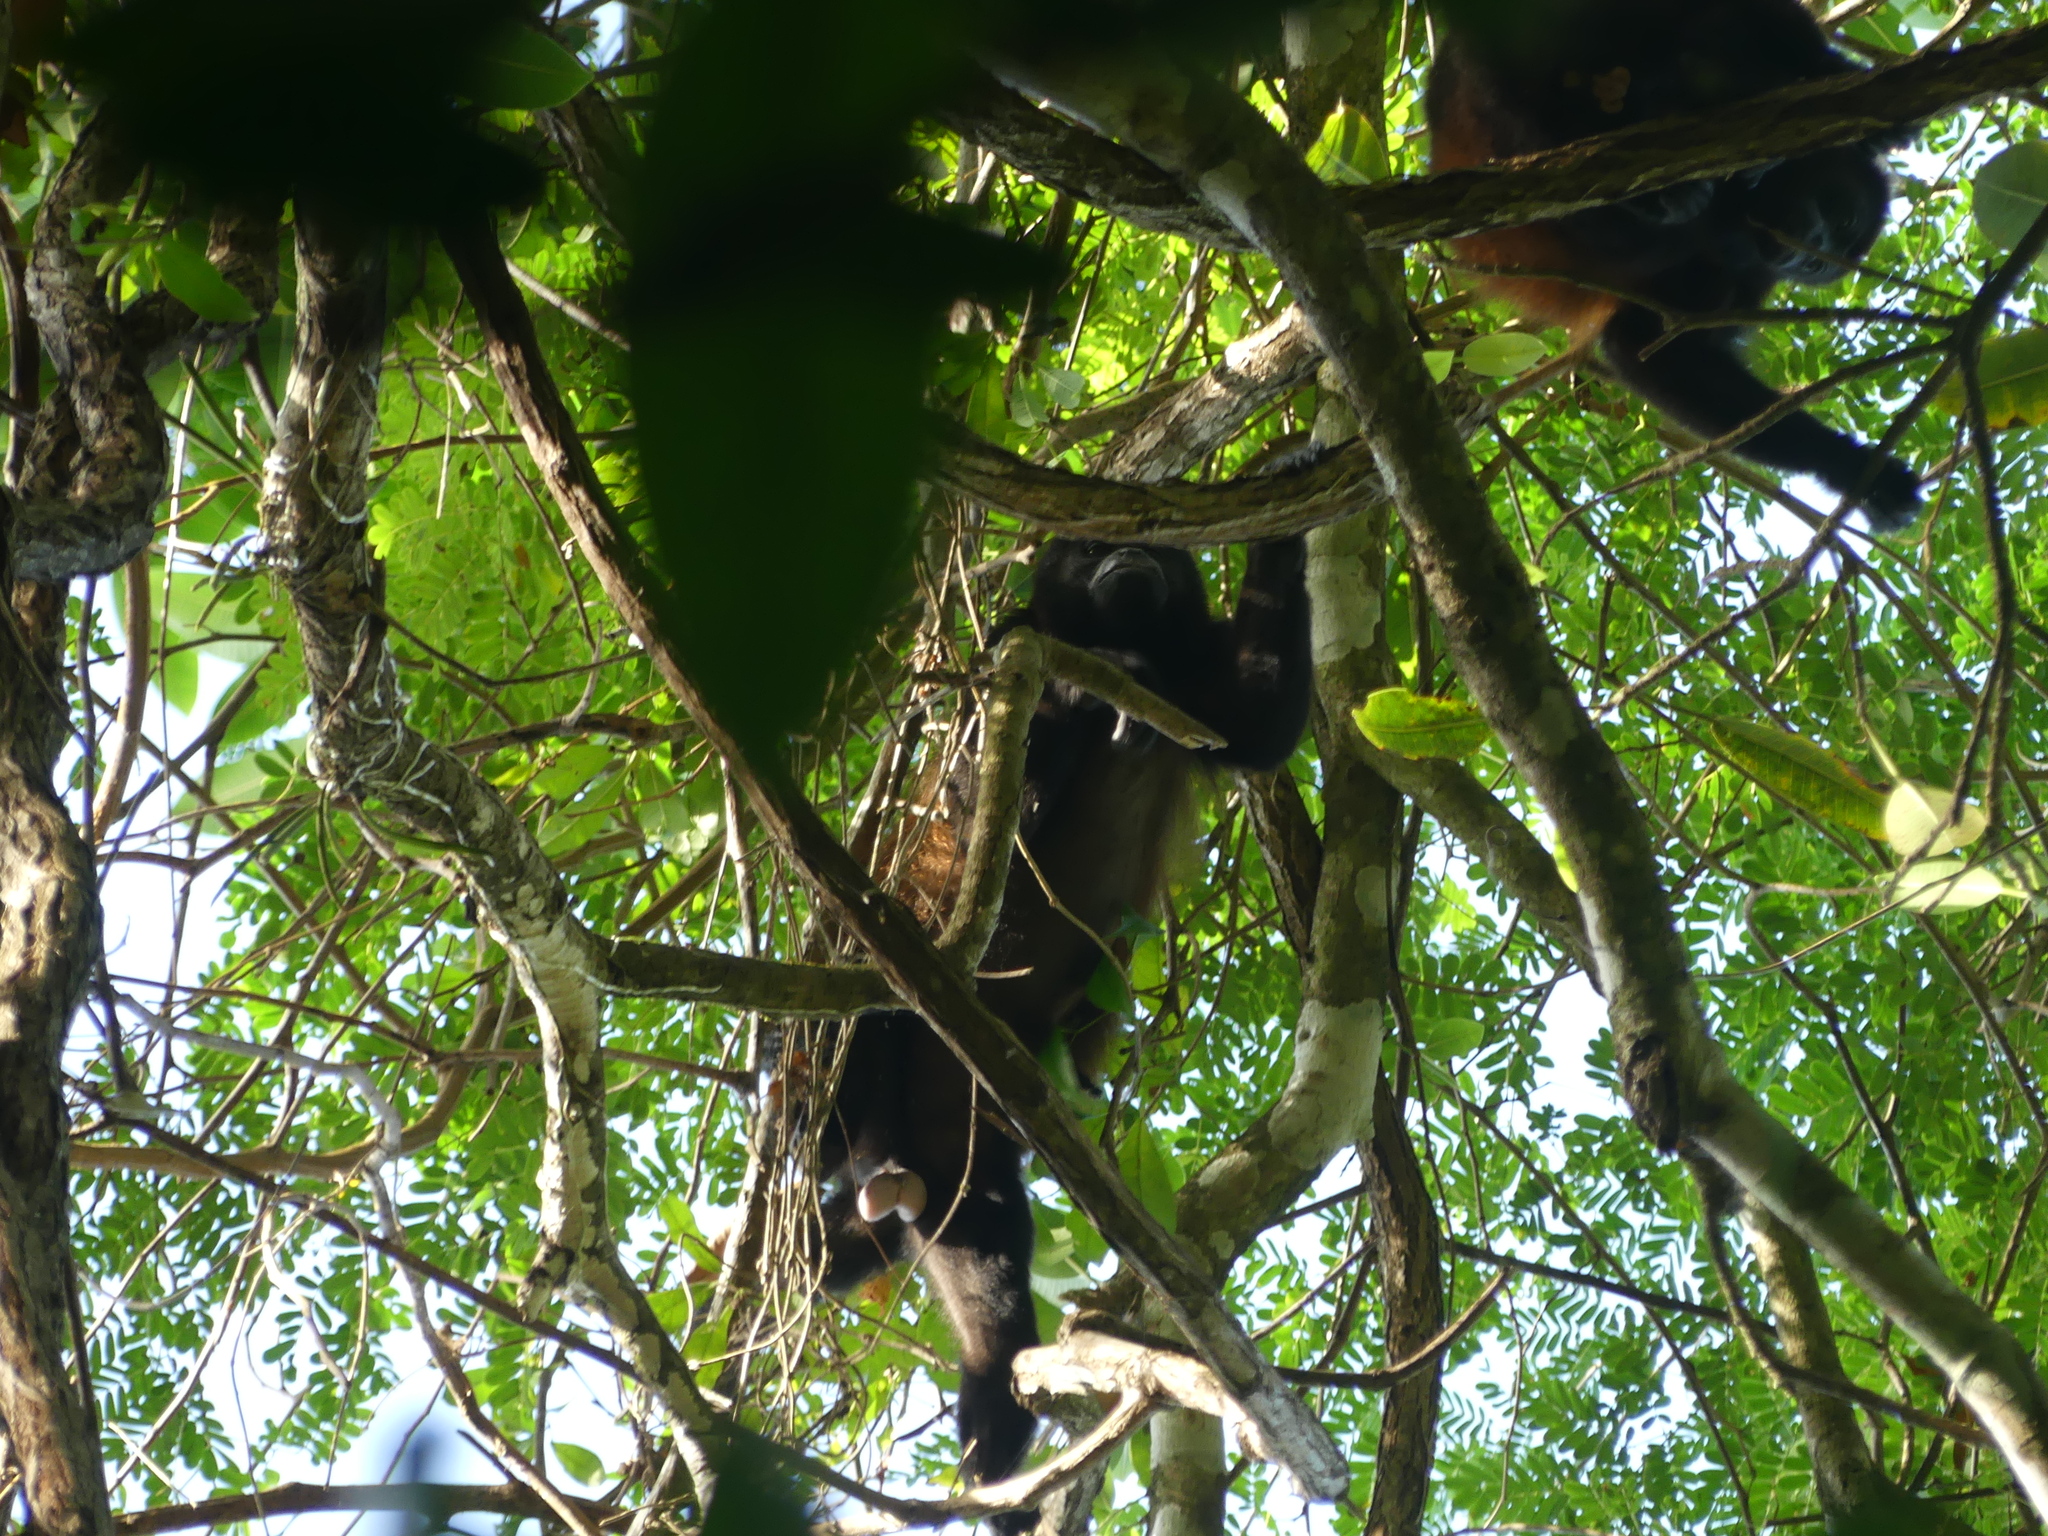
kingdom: Animalia
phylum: Chordata
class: Mammalia
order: Primates
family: Atelidae
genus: Alouatta
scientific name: Alouatta palliata
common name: Mantled howler
